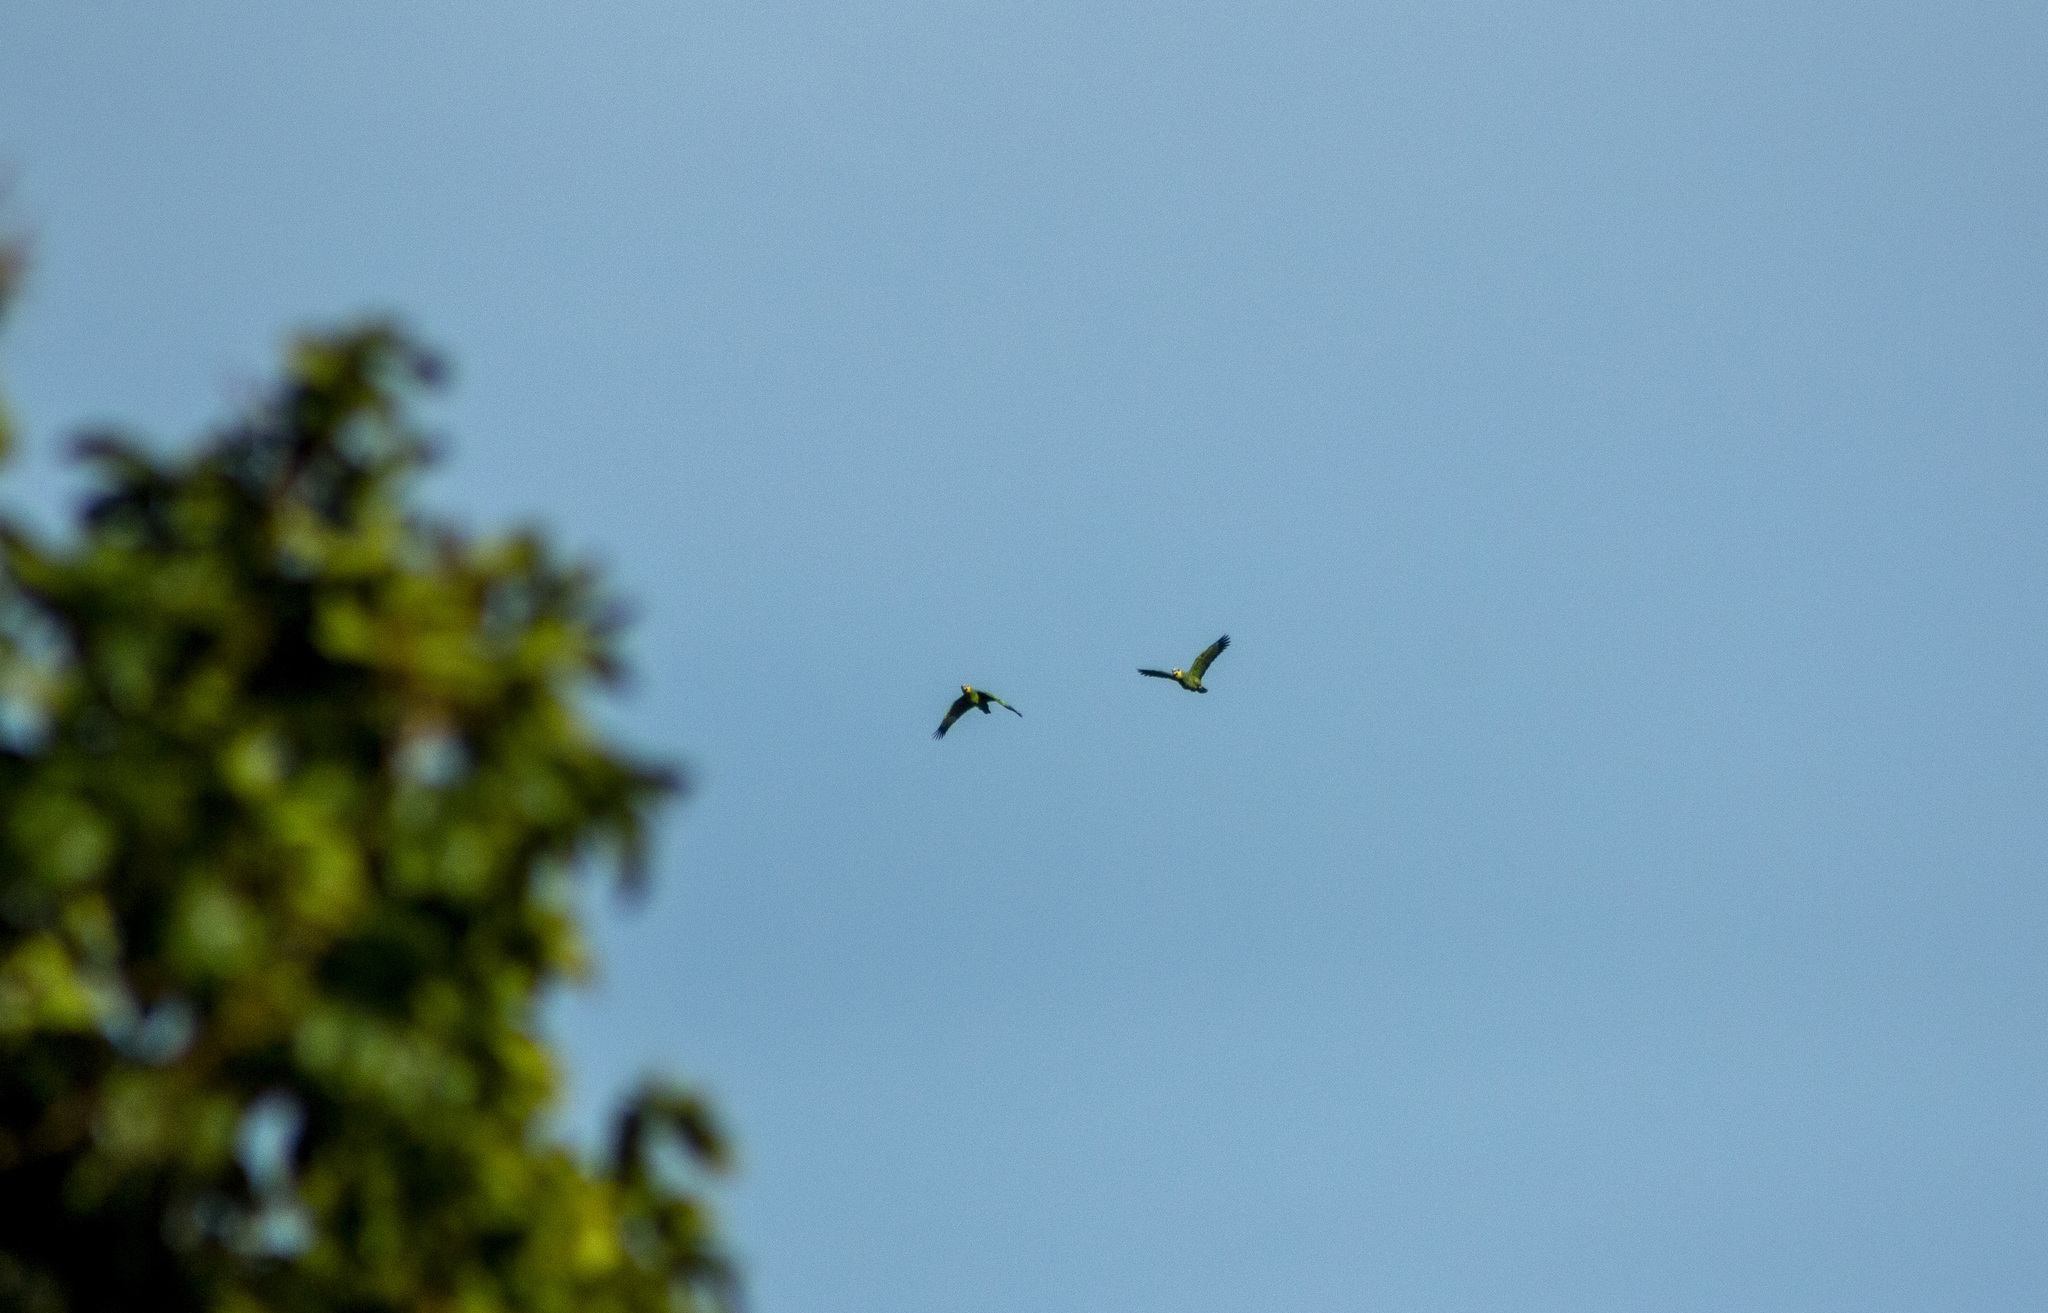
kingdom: Animalia
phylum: Chordata
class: Aves
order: Psittaciformes
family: Psittacidae
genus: Amazona
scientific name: Amazona amazonica
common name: Orange-winged amazon
